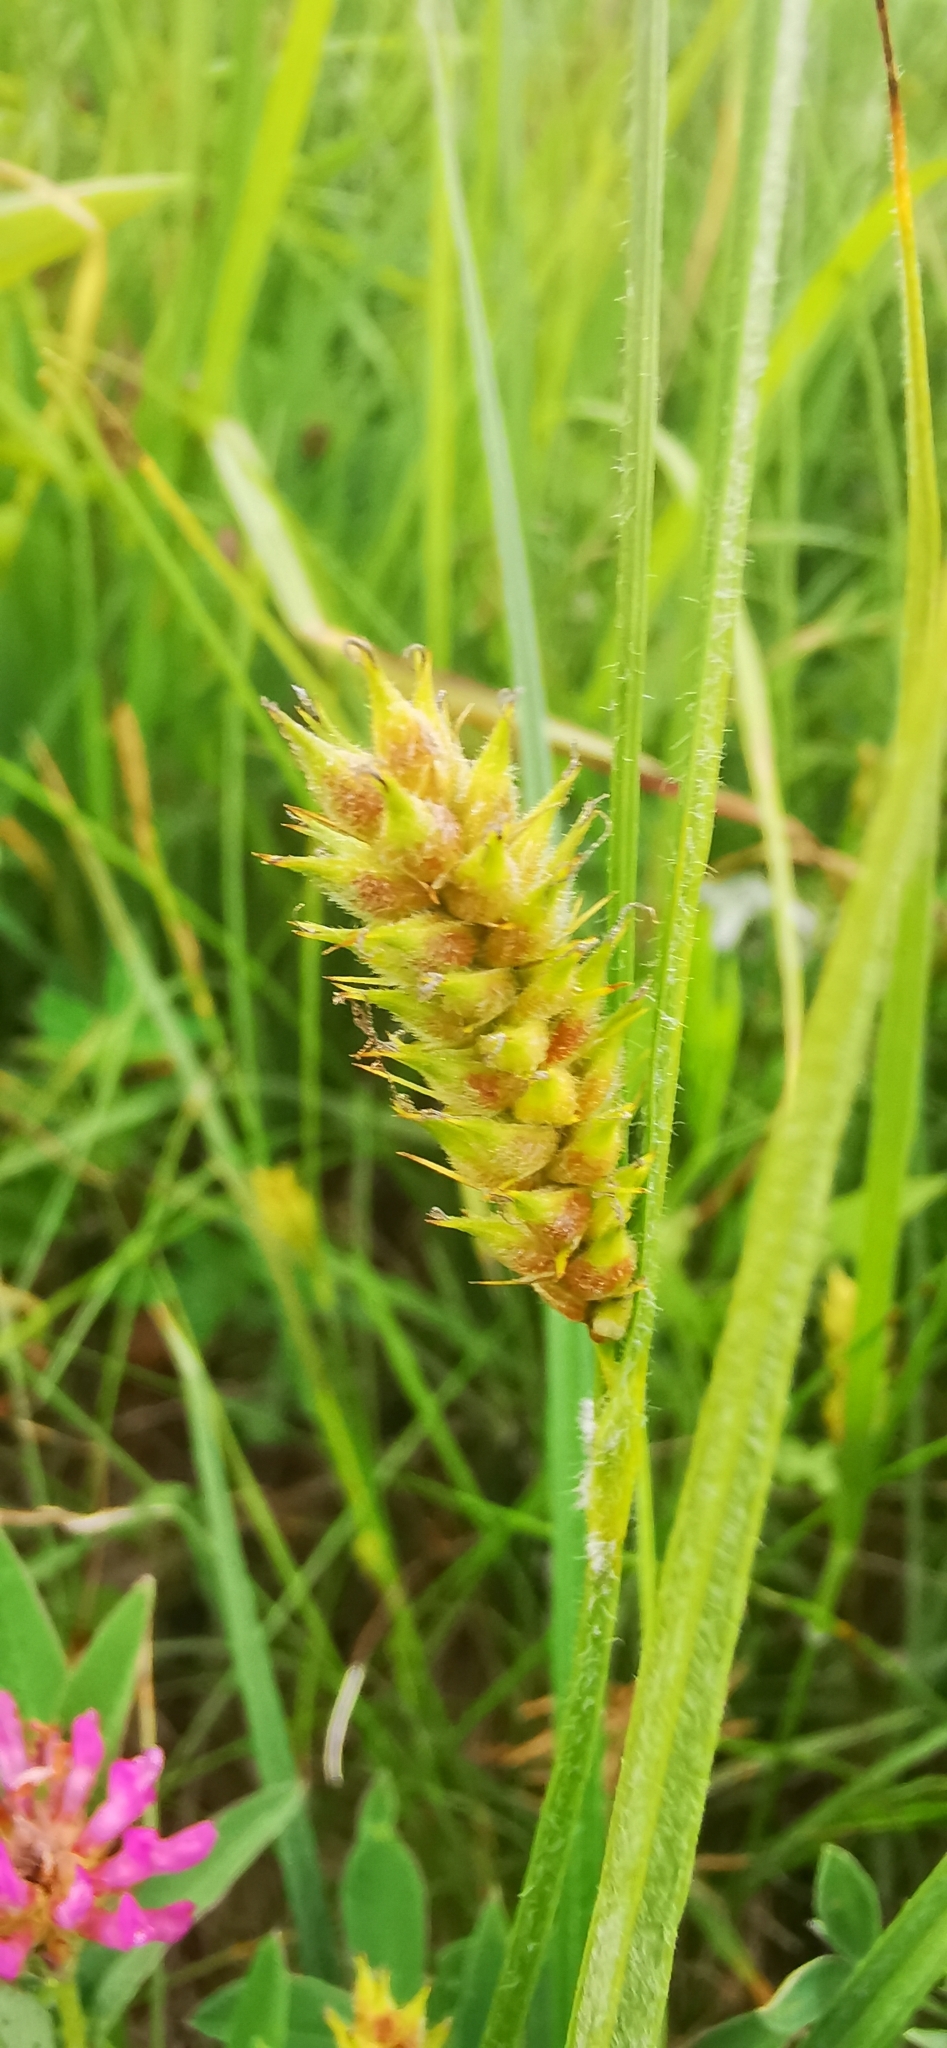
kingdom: Plantae
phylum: Tracheophyta
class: Liliopsida
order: Poales
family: Cyperaceae
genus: Carex
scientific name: Carex hirta
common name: Hairy sedge
